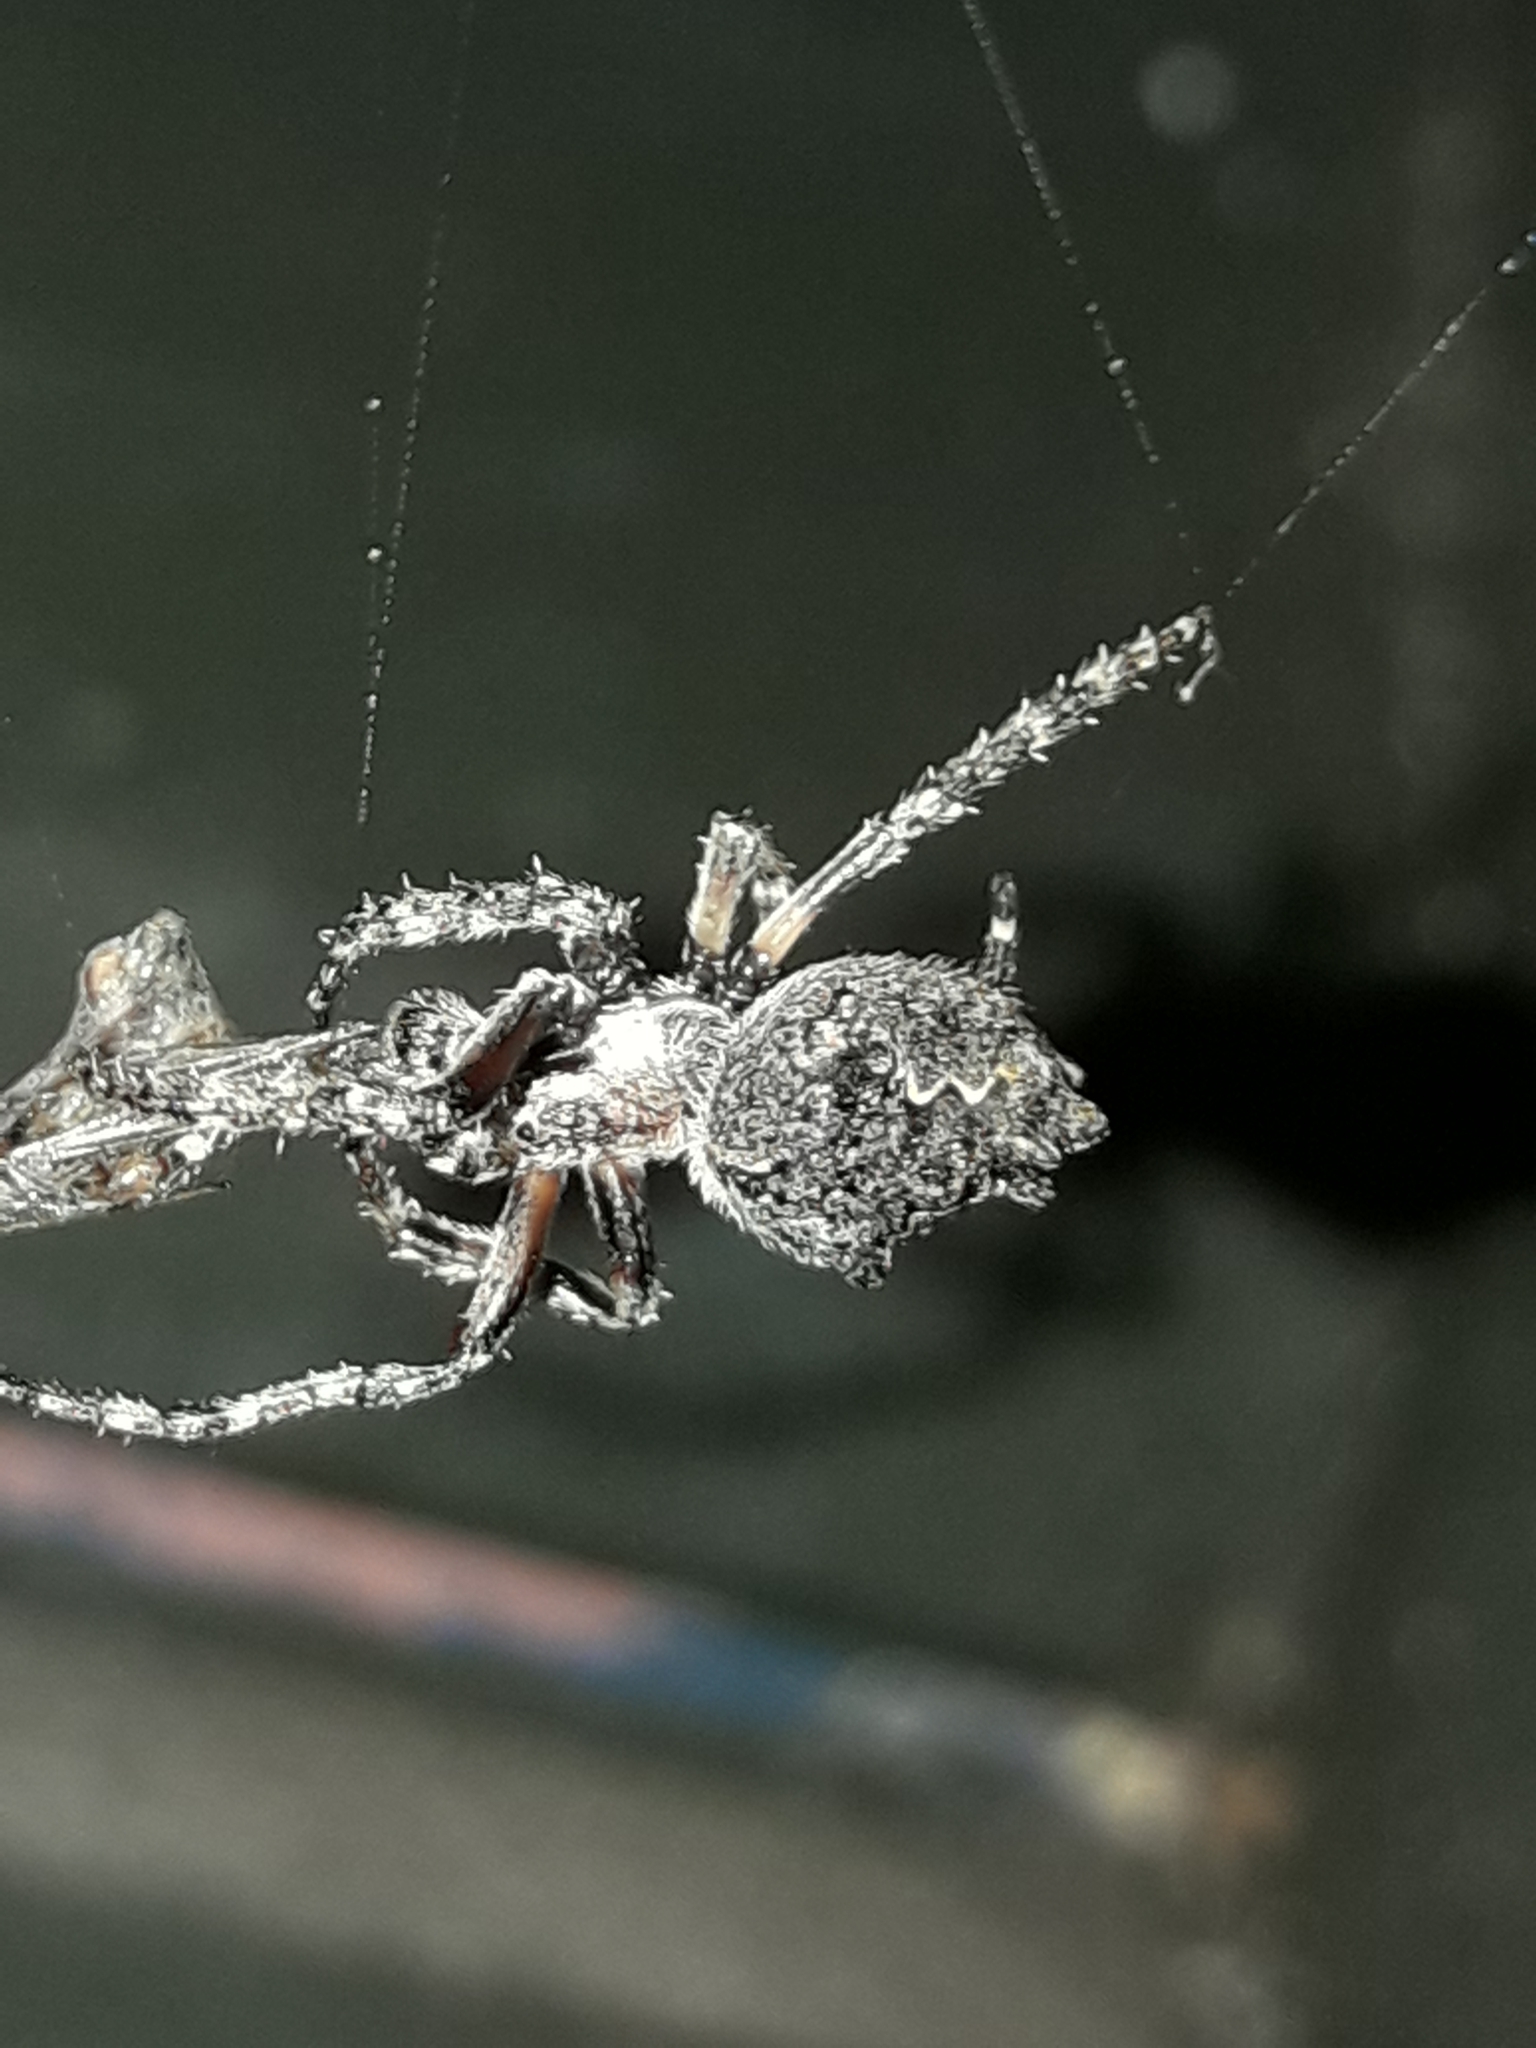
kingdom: Animalia
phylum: Arthropoda
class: Arachnida
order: Araneae
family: Araneidae
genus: Eriophora
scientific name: Eriophora pustulosa
